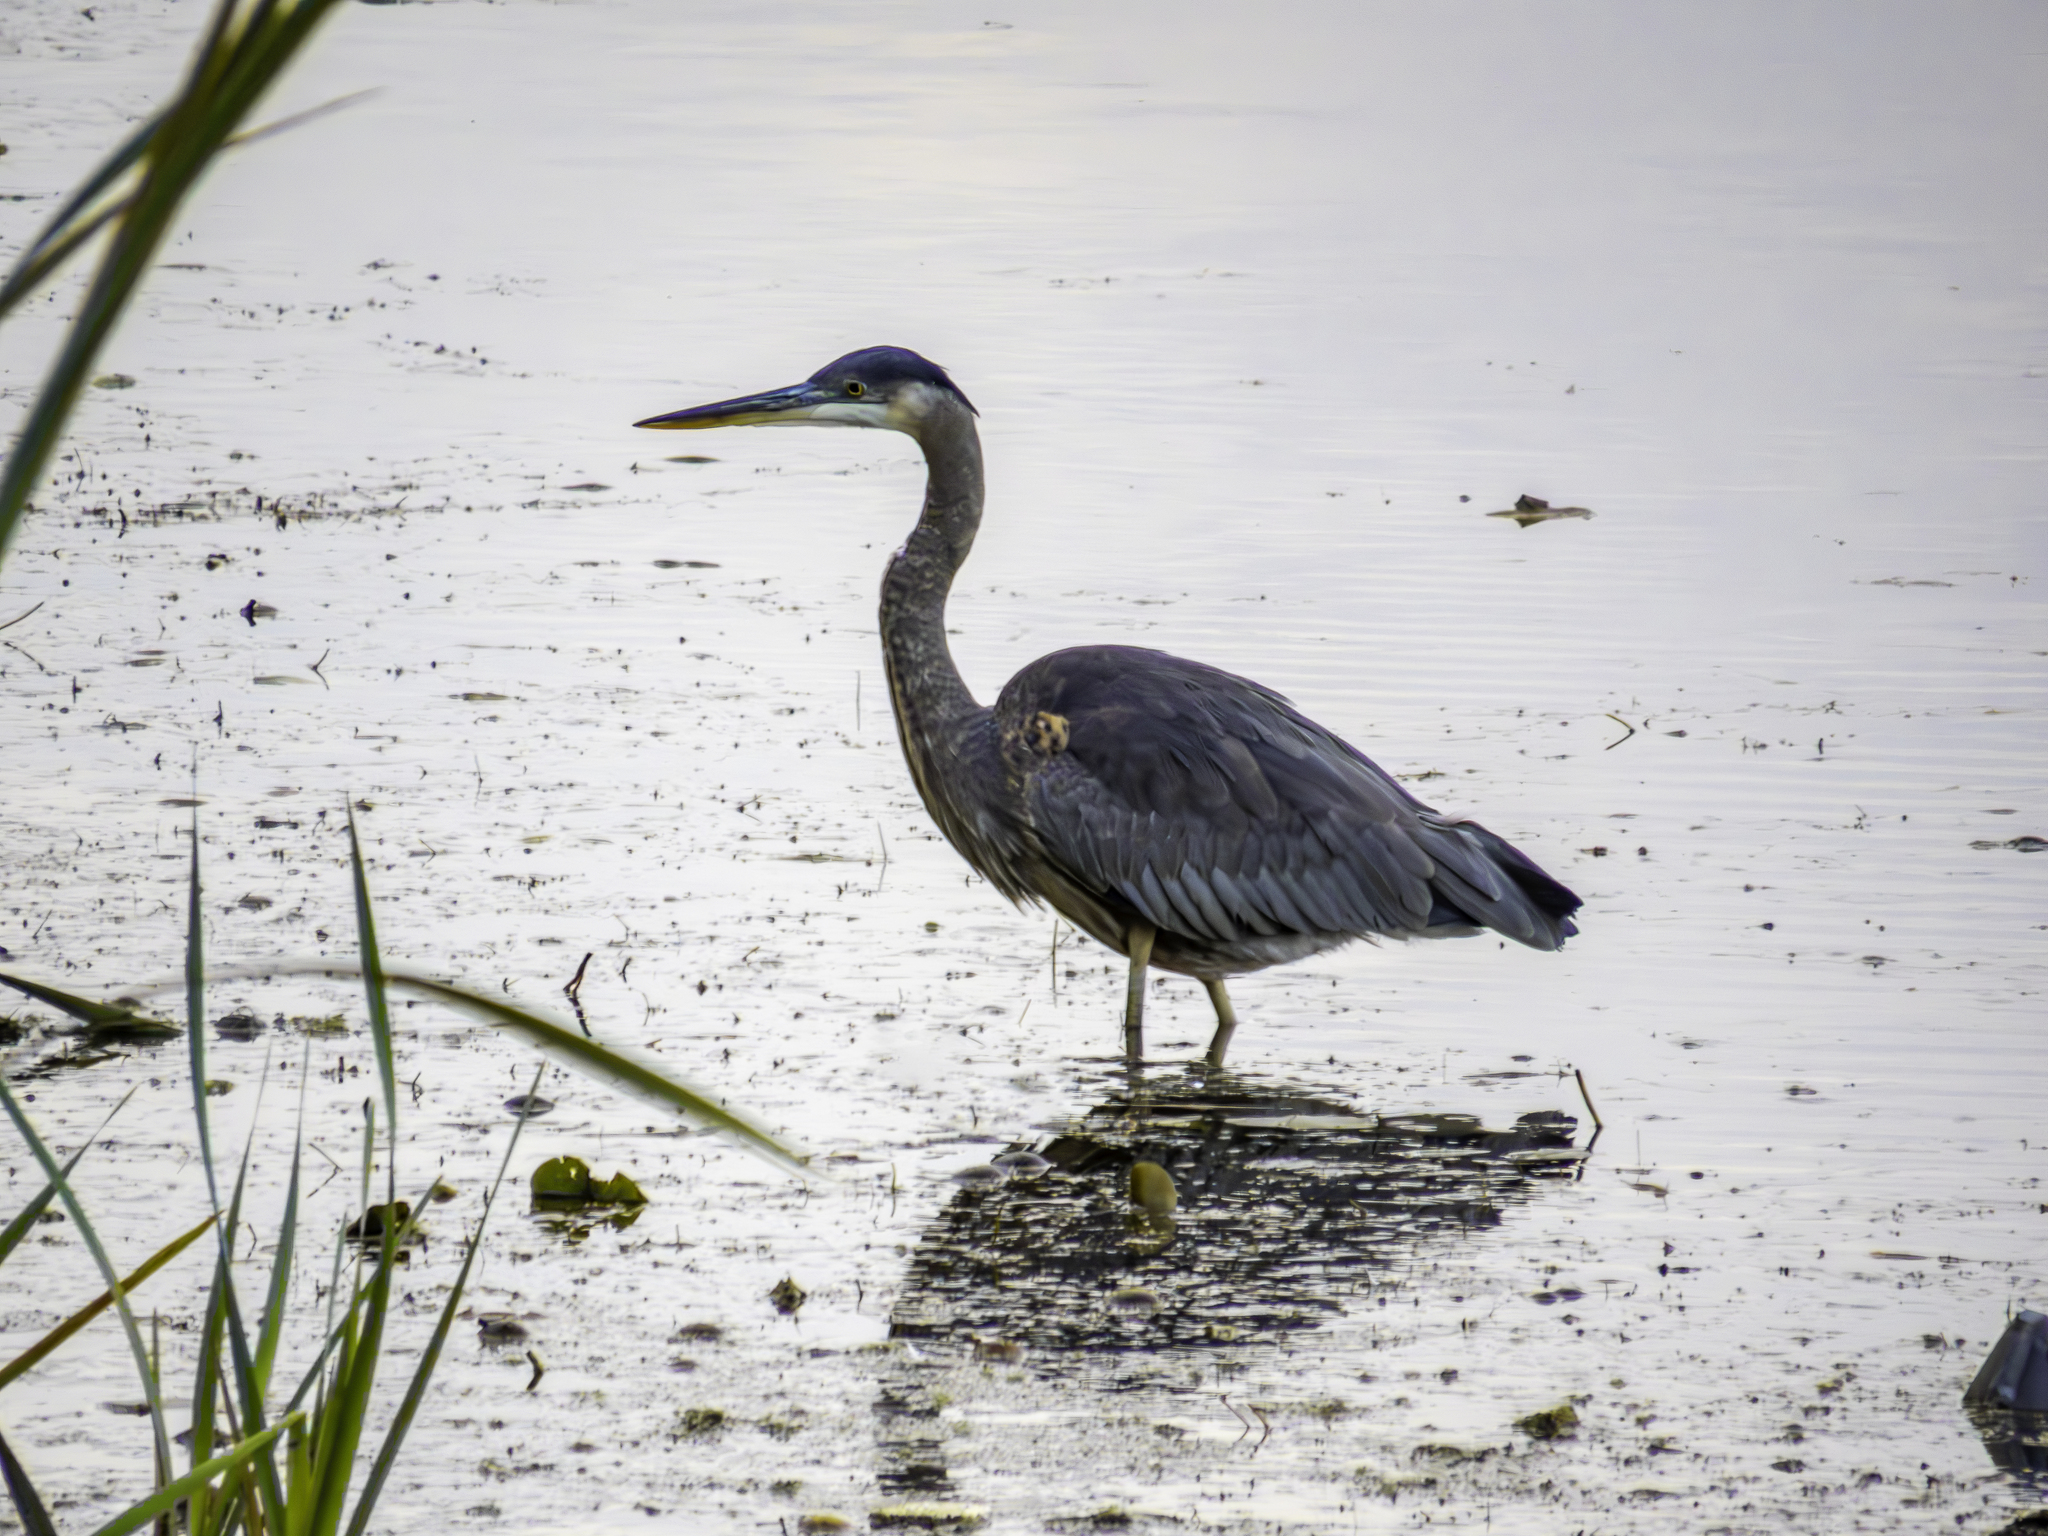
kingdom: Animalia
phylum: Chordata
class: Aves
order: Pelecaniformes
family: Ardeidae
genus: Ardea
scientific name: Ardea herodias
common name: Great blue heron
